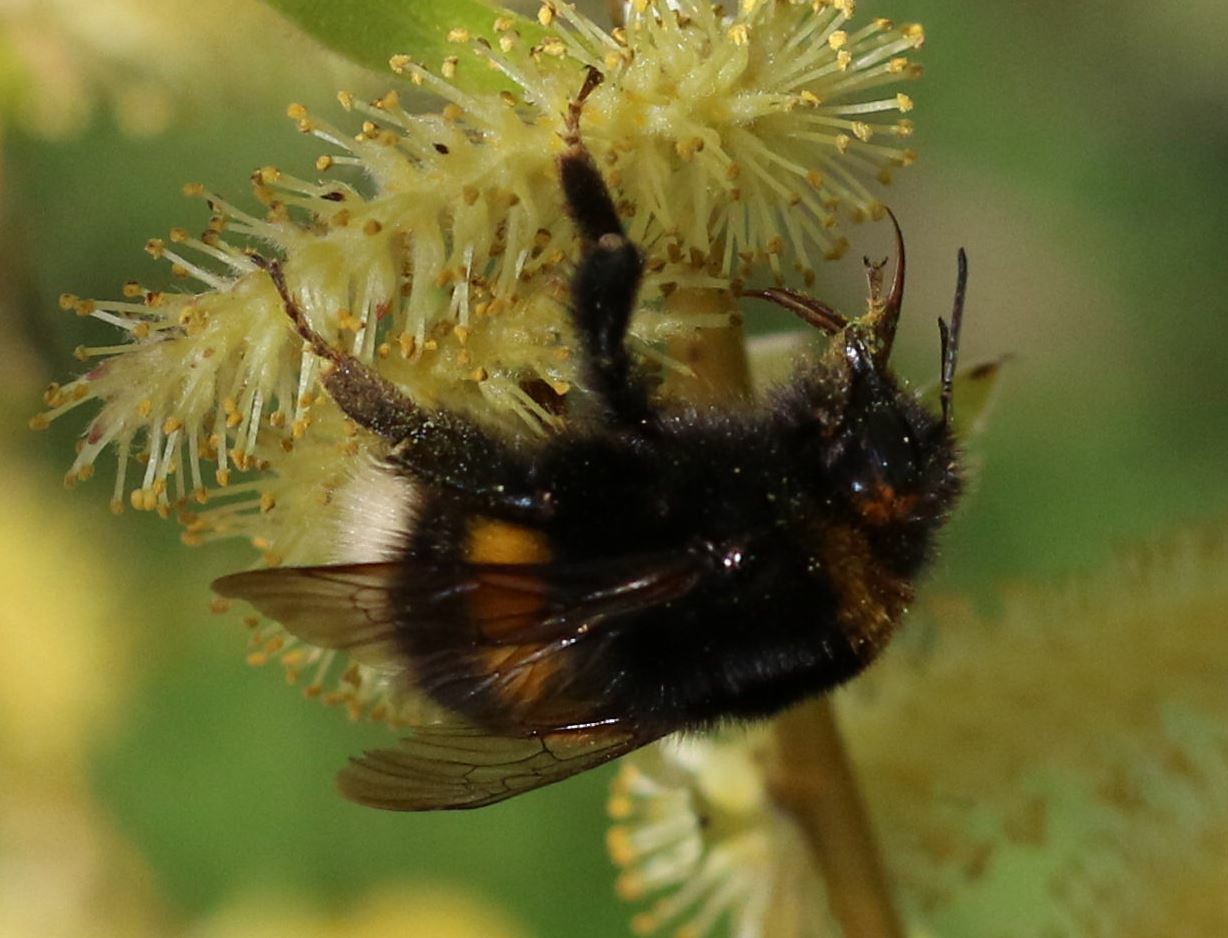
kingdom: Animalia
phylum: Arthropoda
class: Insecta
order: Hymenoptera
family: Apidae
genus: Bombus
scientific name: Bombus
